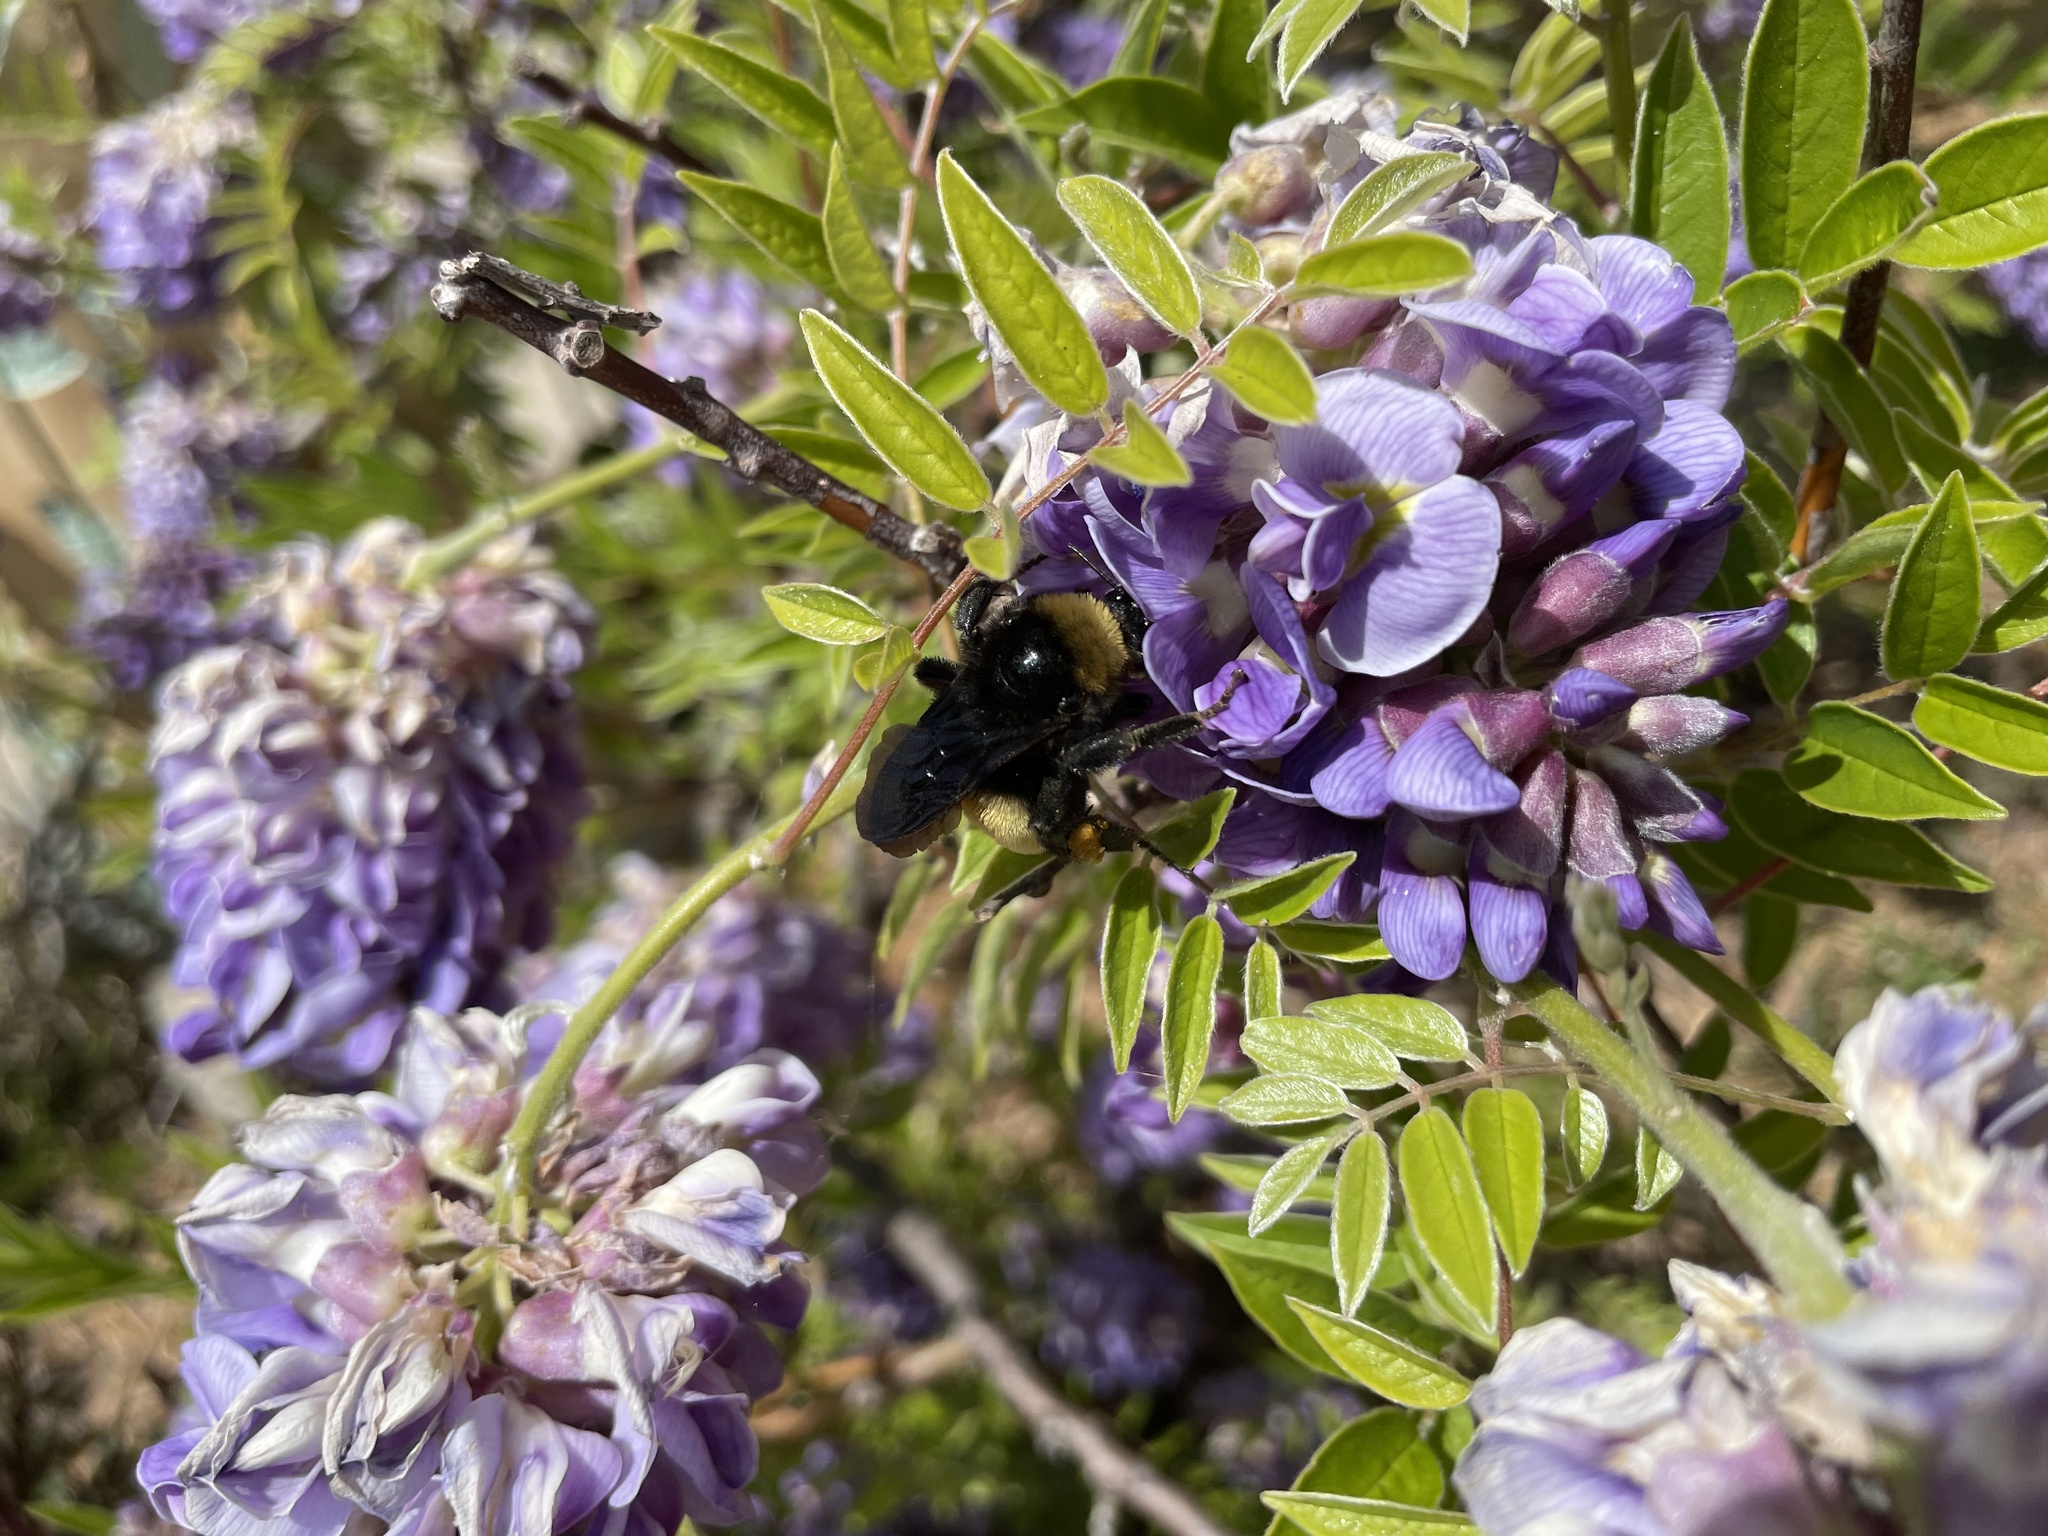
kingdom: Animalia
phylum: Arthropoda
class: Insecta
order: Hymenoptera
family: Apidae
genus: Bombus
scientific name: Bombus pensylvanicus
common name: Bumble bee
